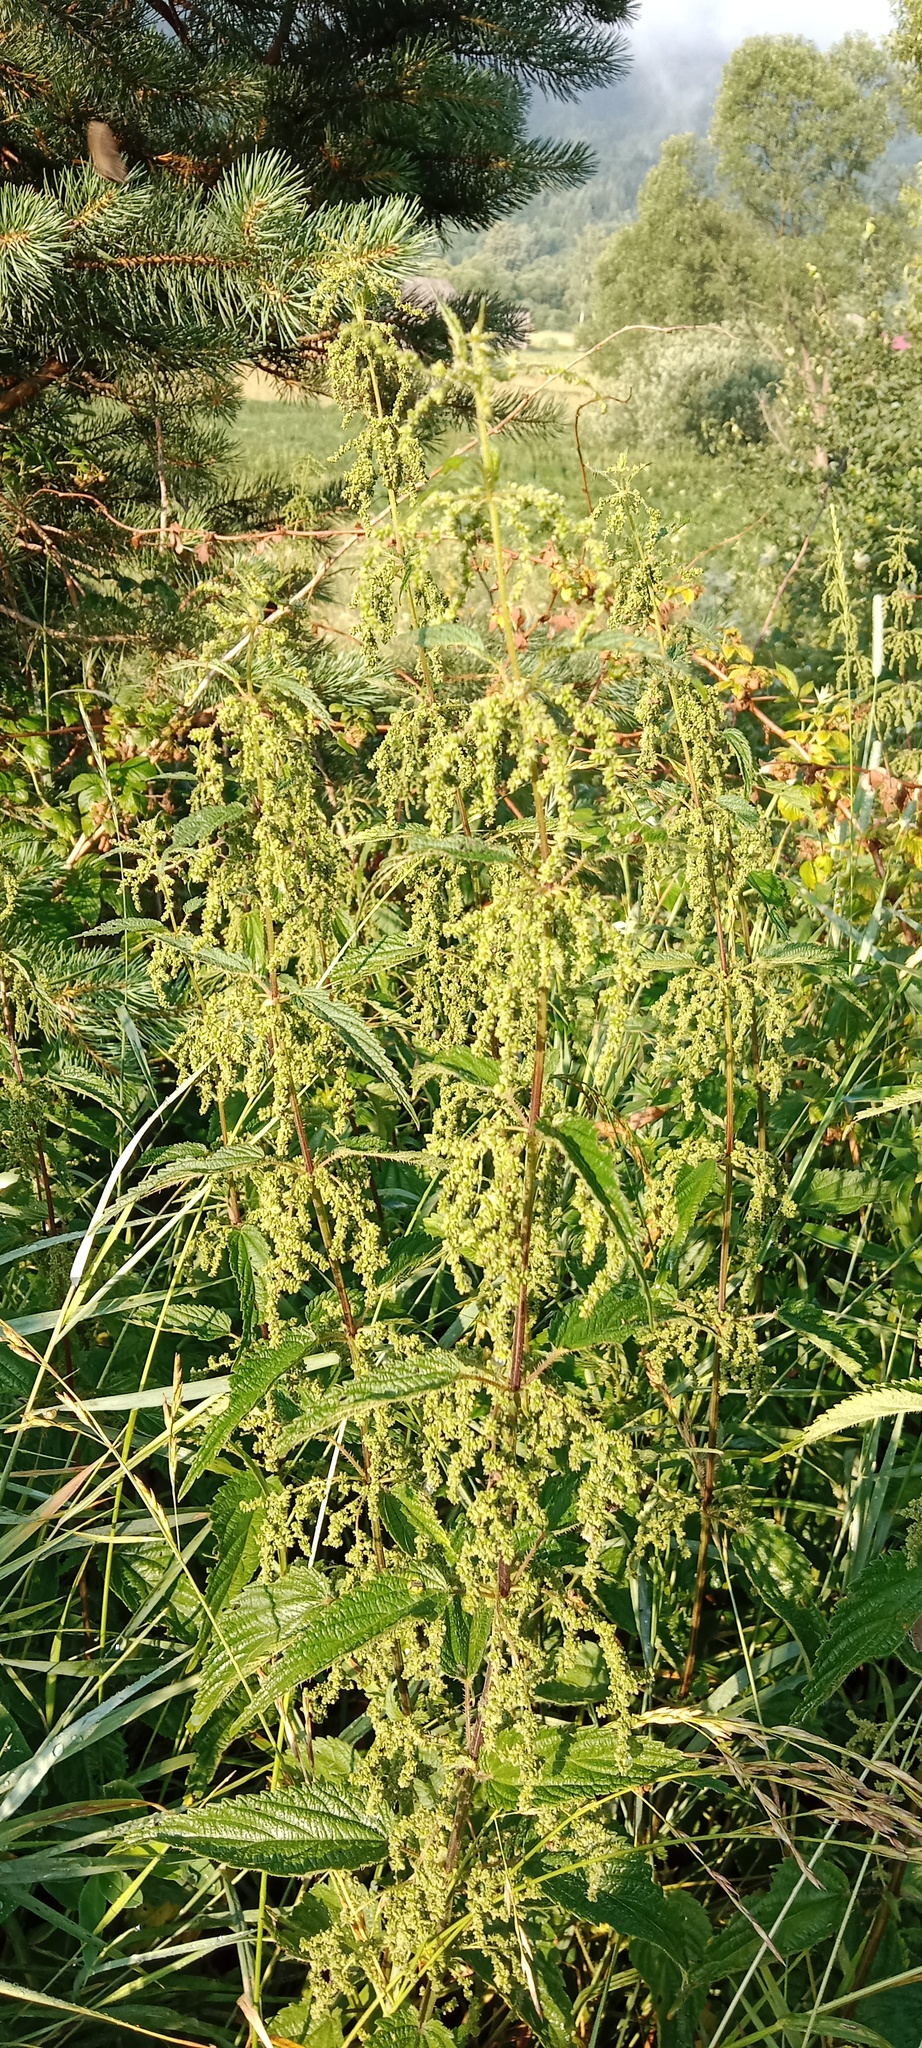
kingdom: Plantae
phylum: Tracheophyta
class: Magnoliopsida
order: Rosales
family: Urticaceae
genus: Urtica
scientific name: Urtica dioica
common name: Common nettle
